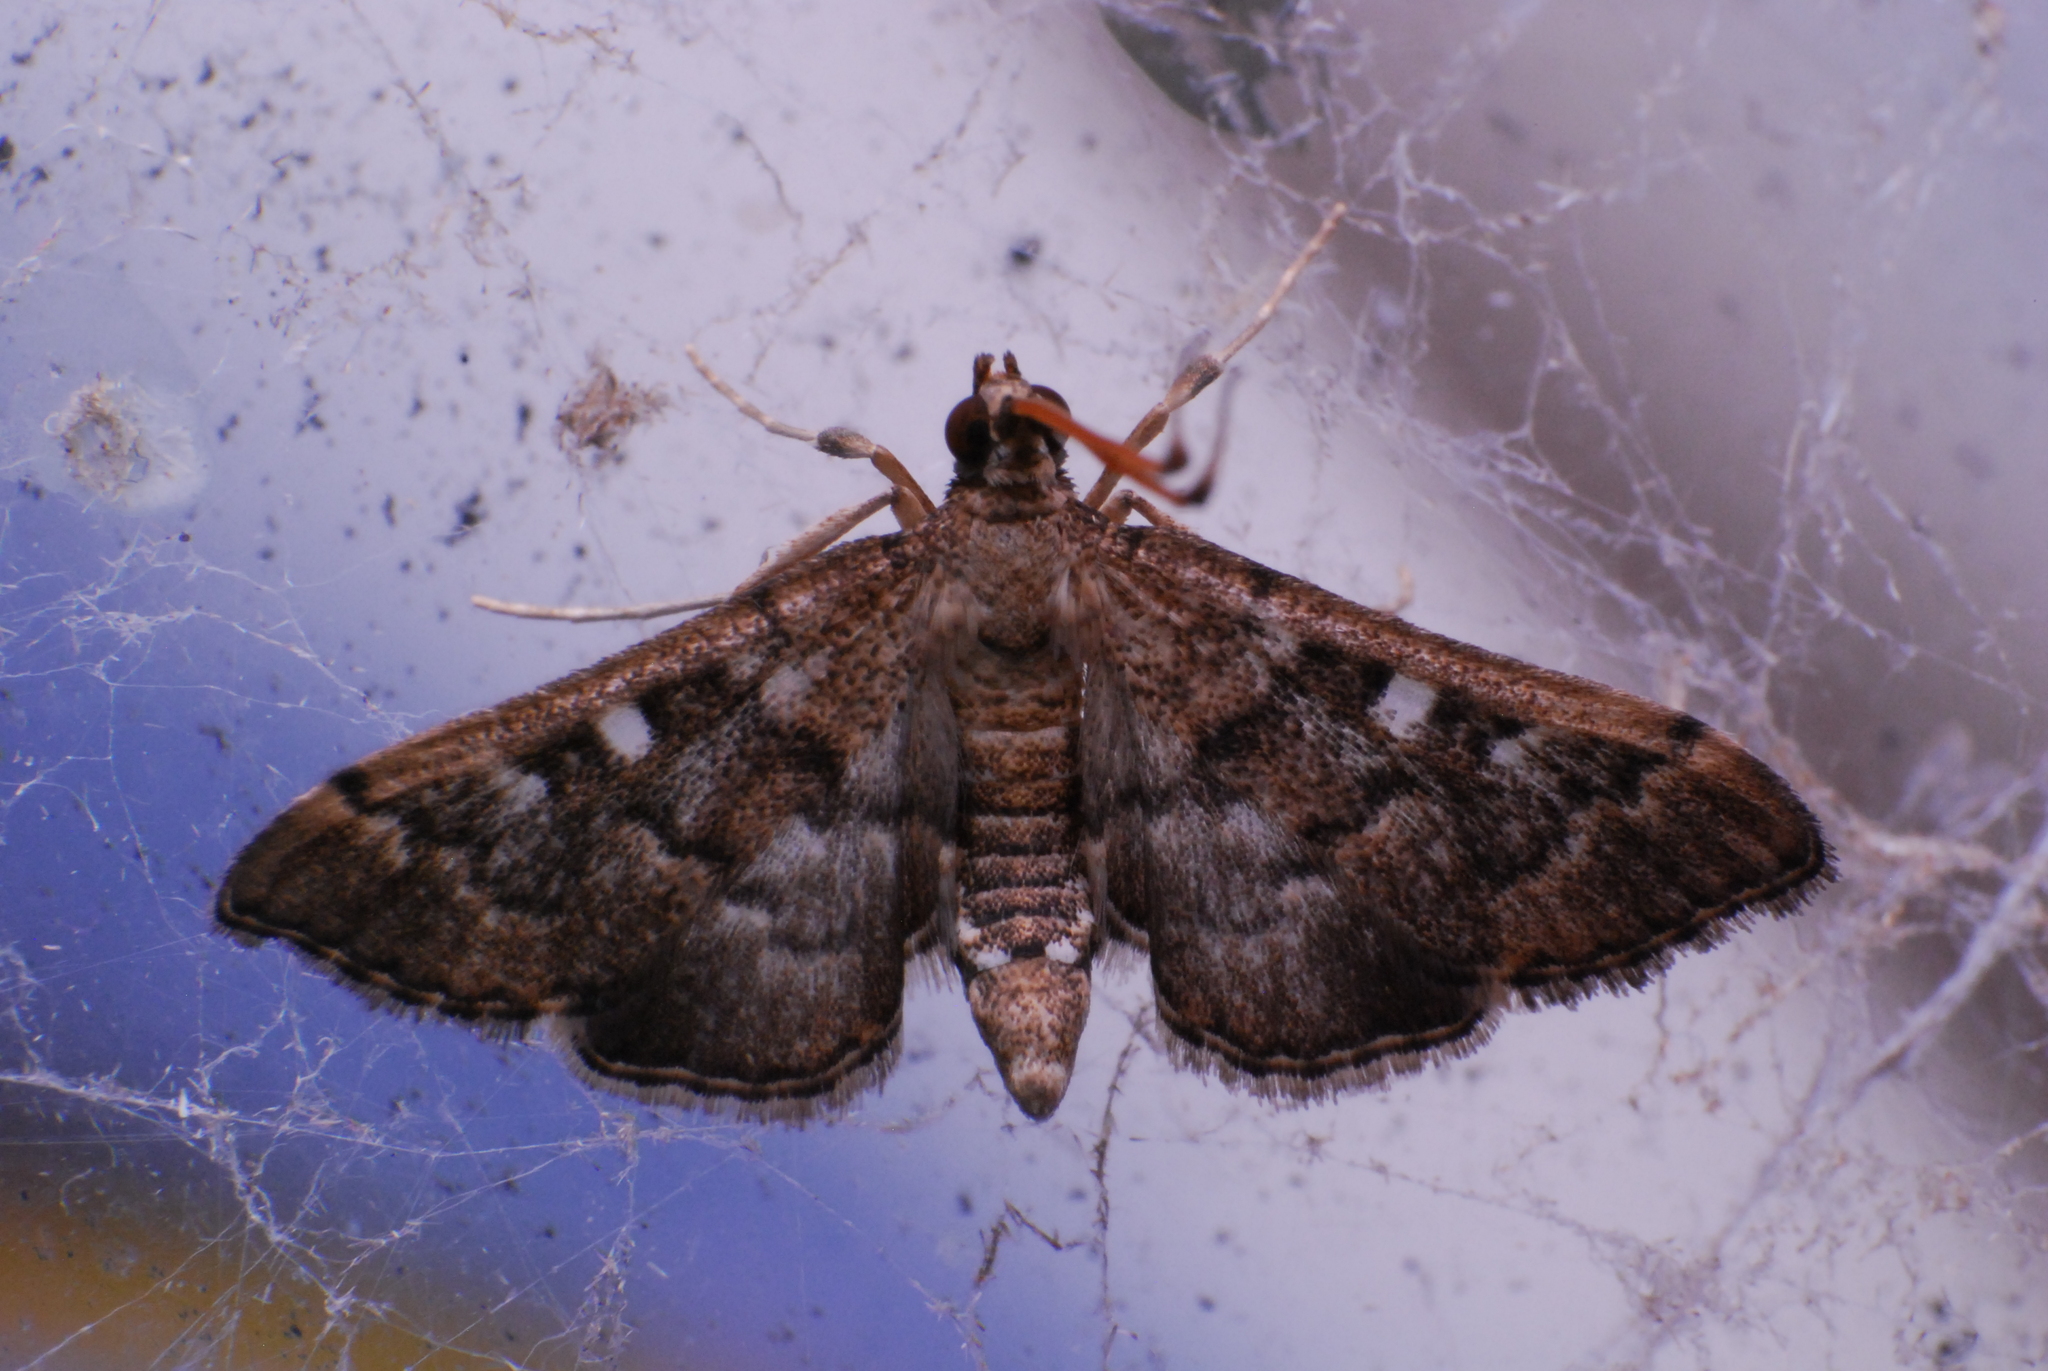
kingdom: Animalia
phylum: Arthropoda
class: Insecta
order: Lepidoptera
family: Crambidae
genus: Nacoleia
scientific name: Nacoleia rhoeoalis
